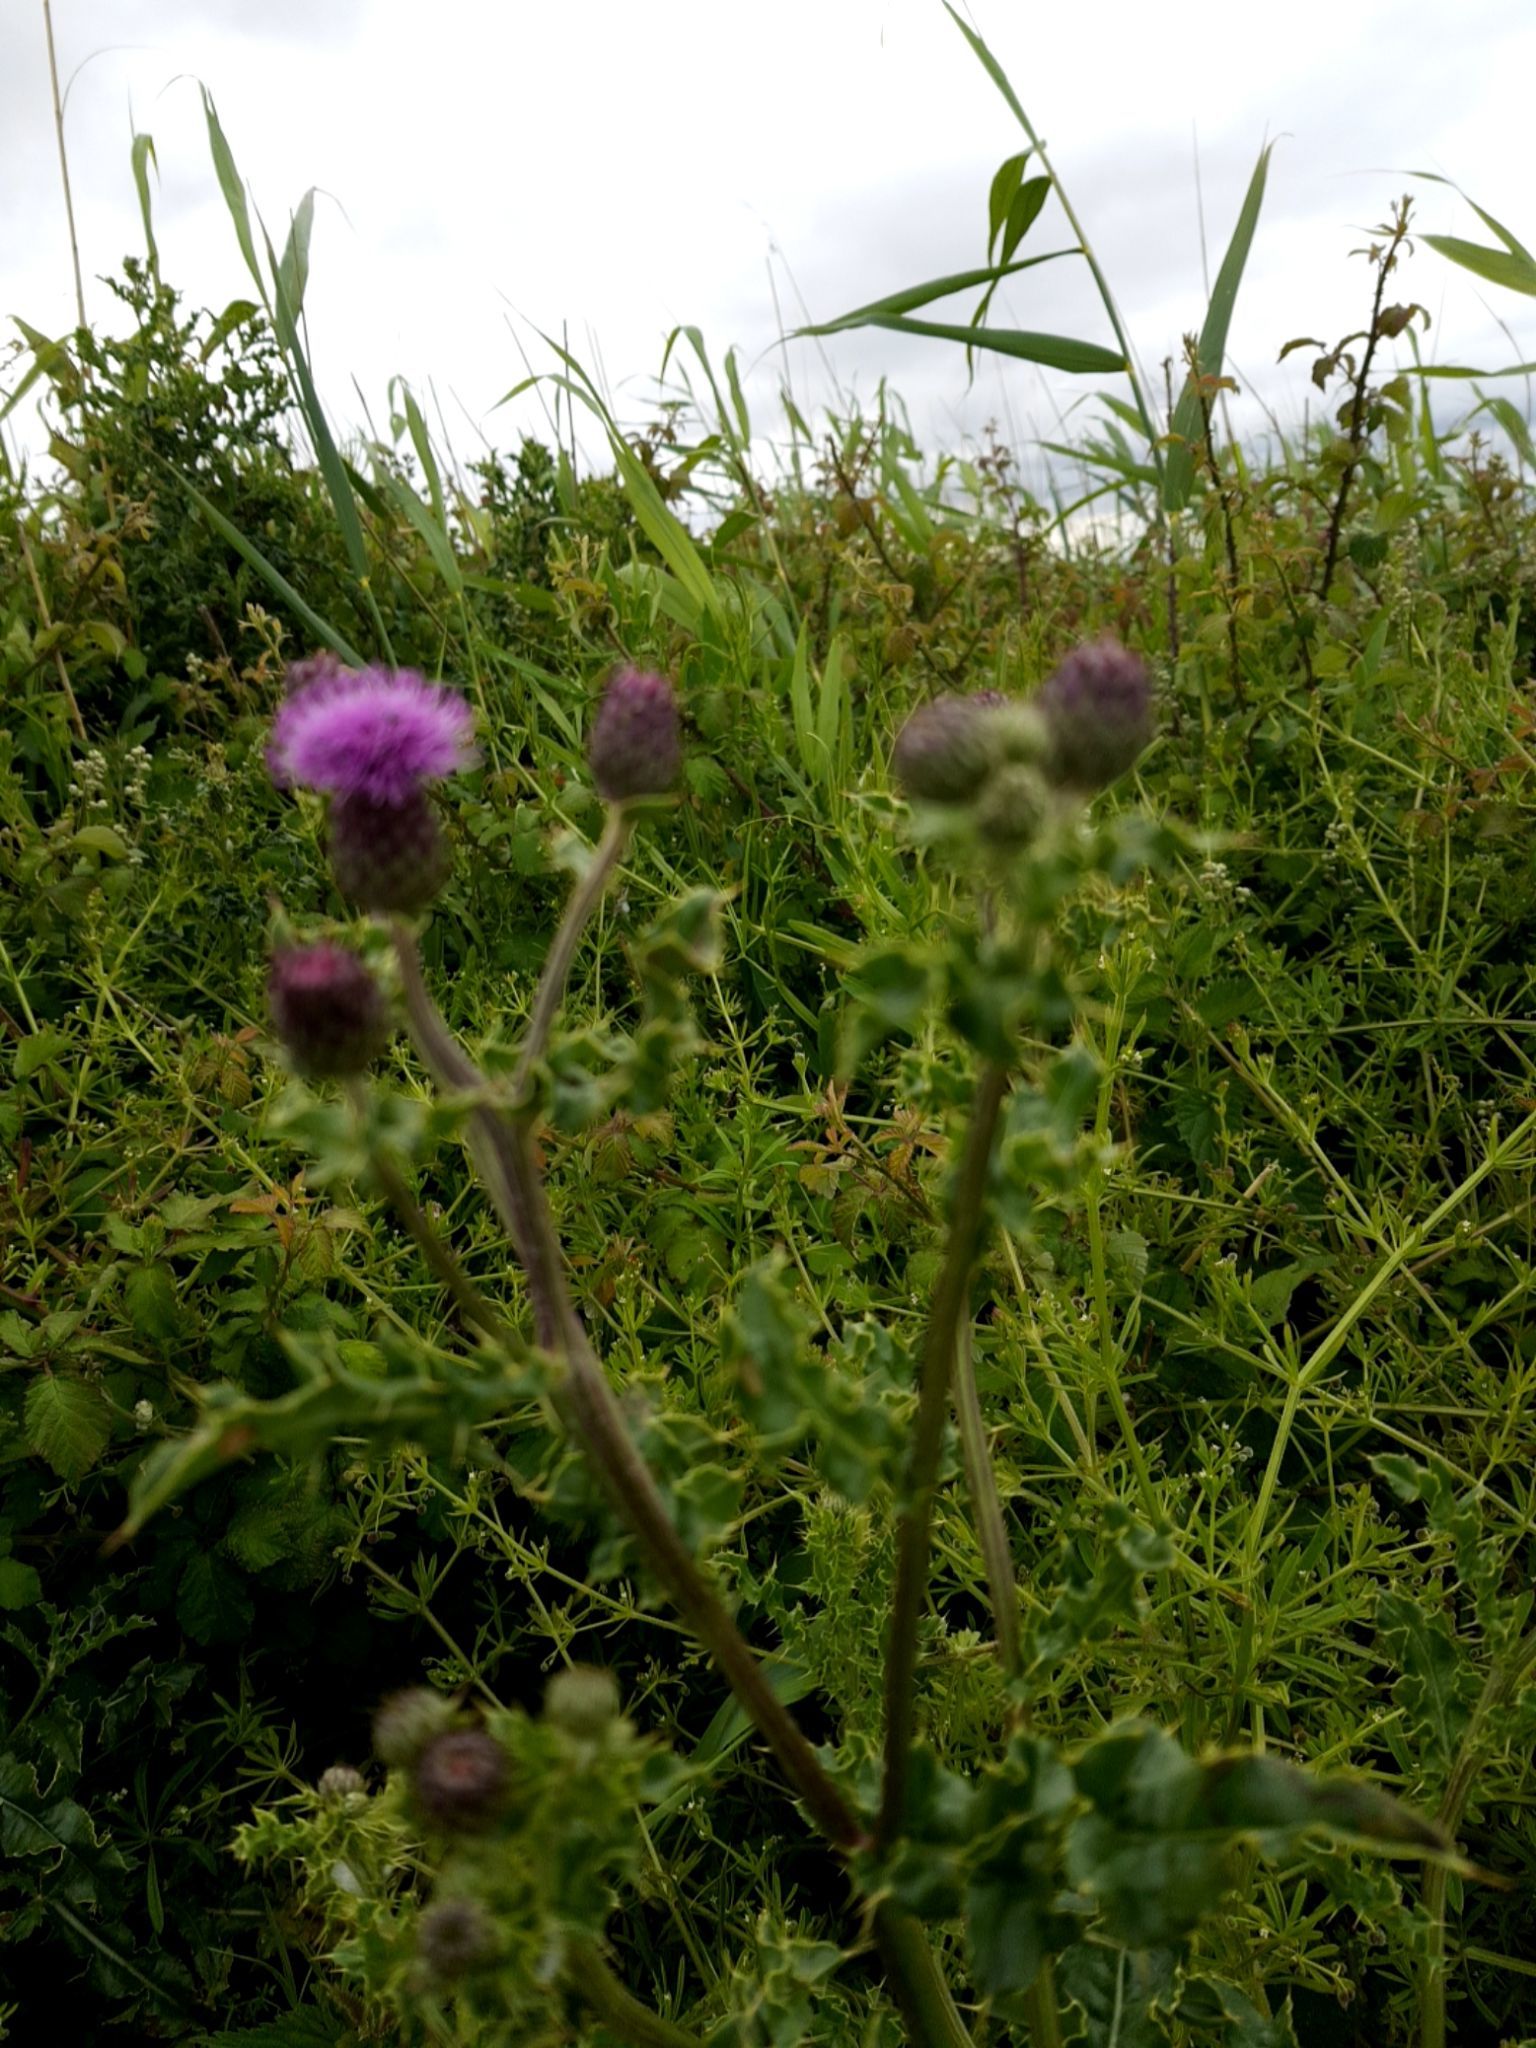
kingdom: Plantae
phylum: Tracheophyta
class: Magnoliopsida
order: Asterales
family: Asteraceae
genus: Cirsium
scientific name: Cirsium arvense
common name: Creeping thistle
